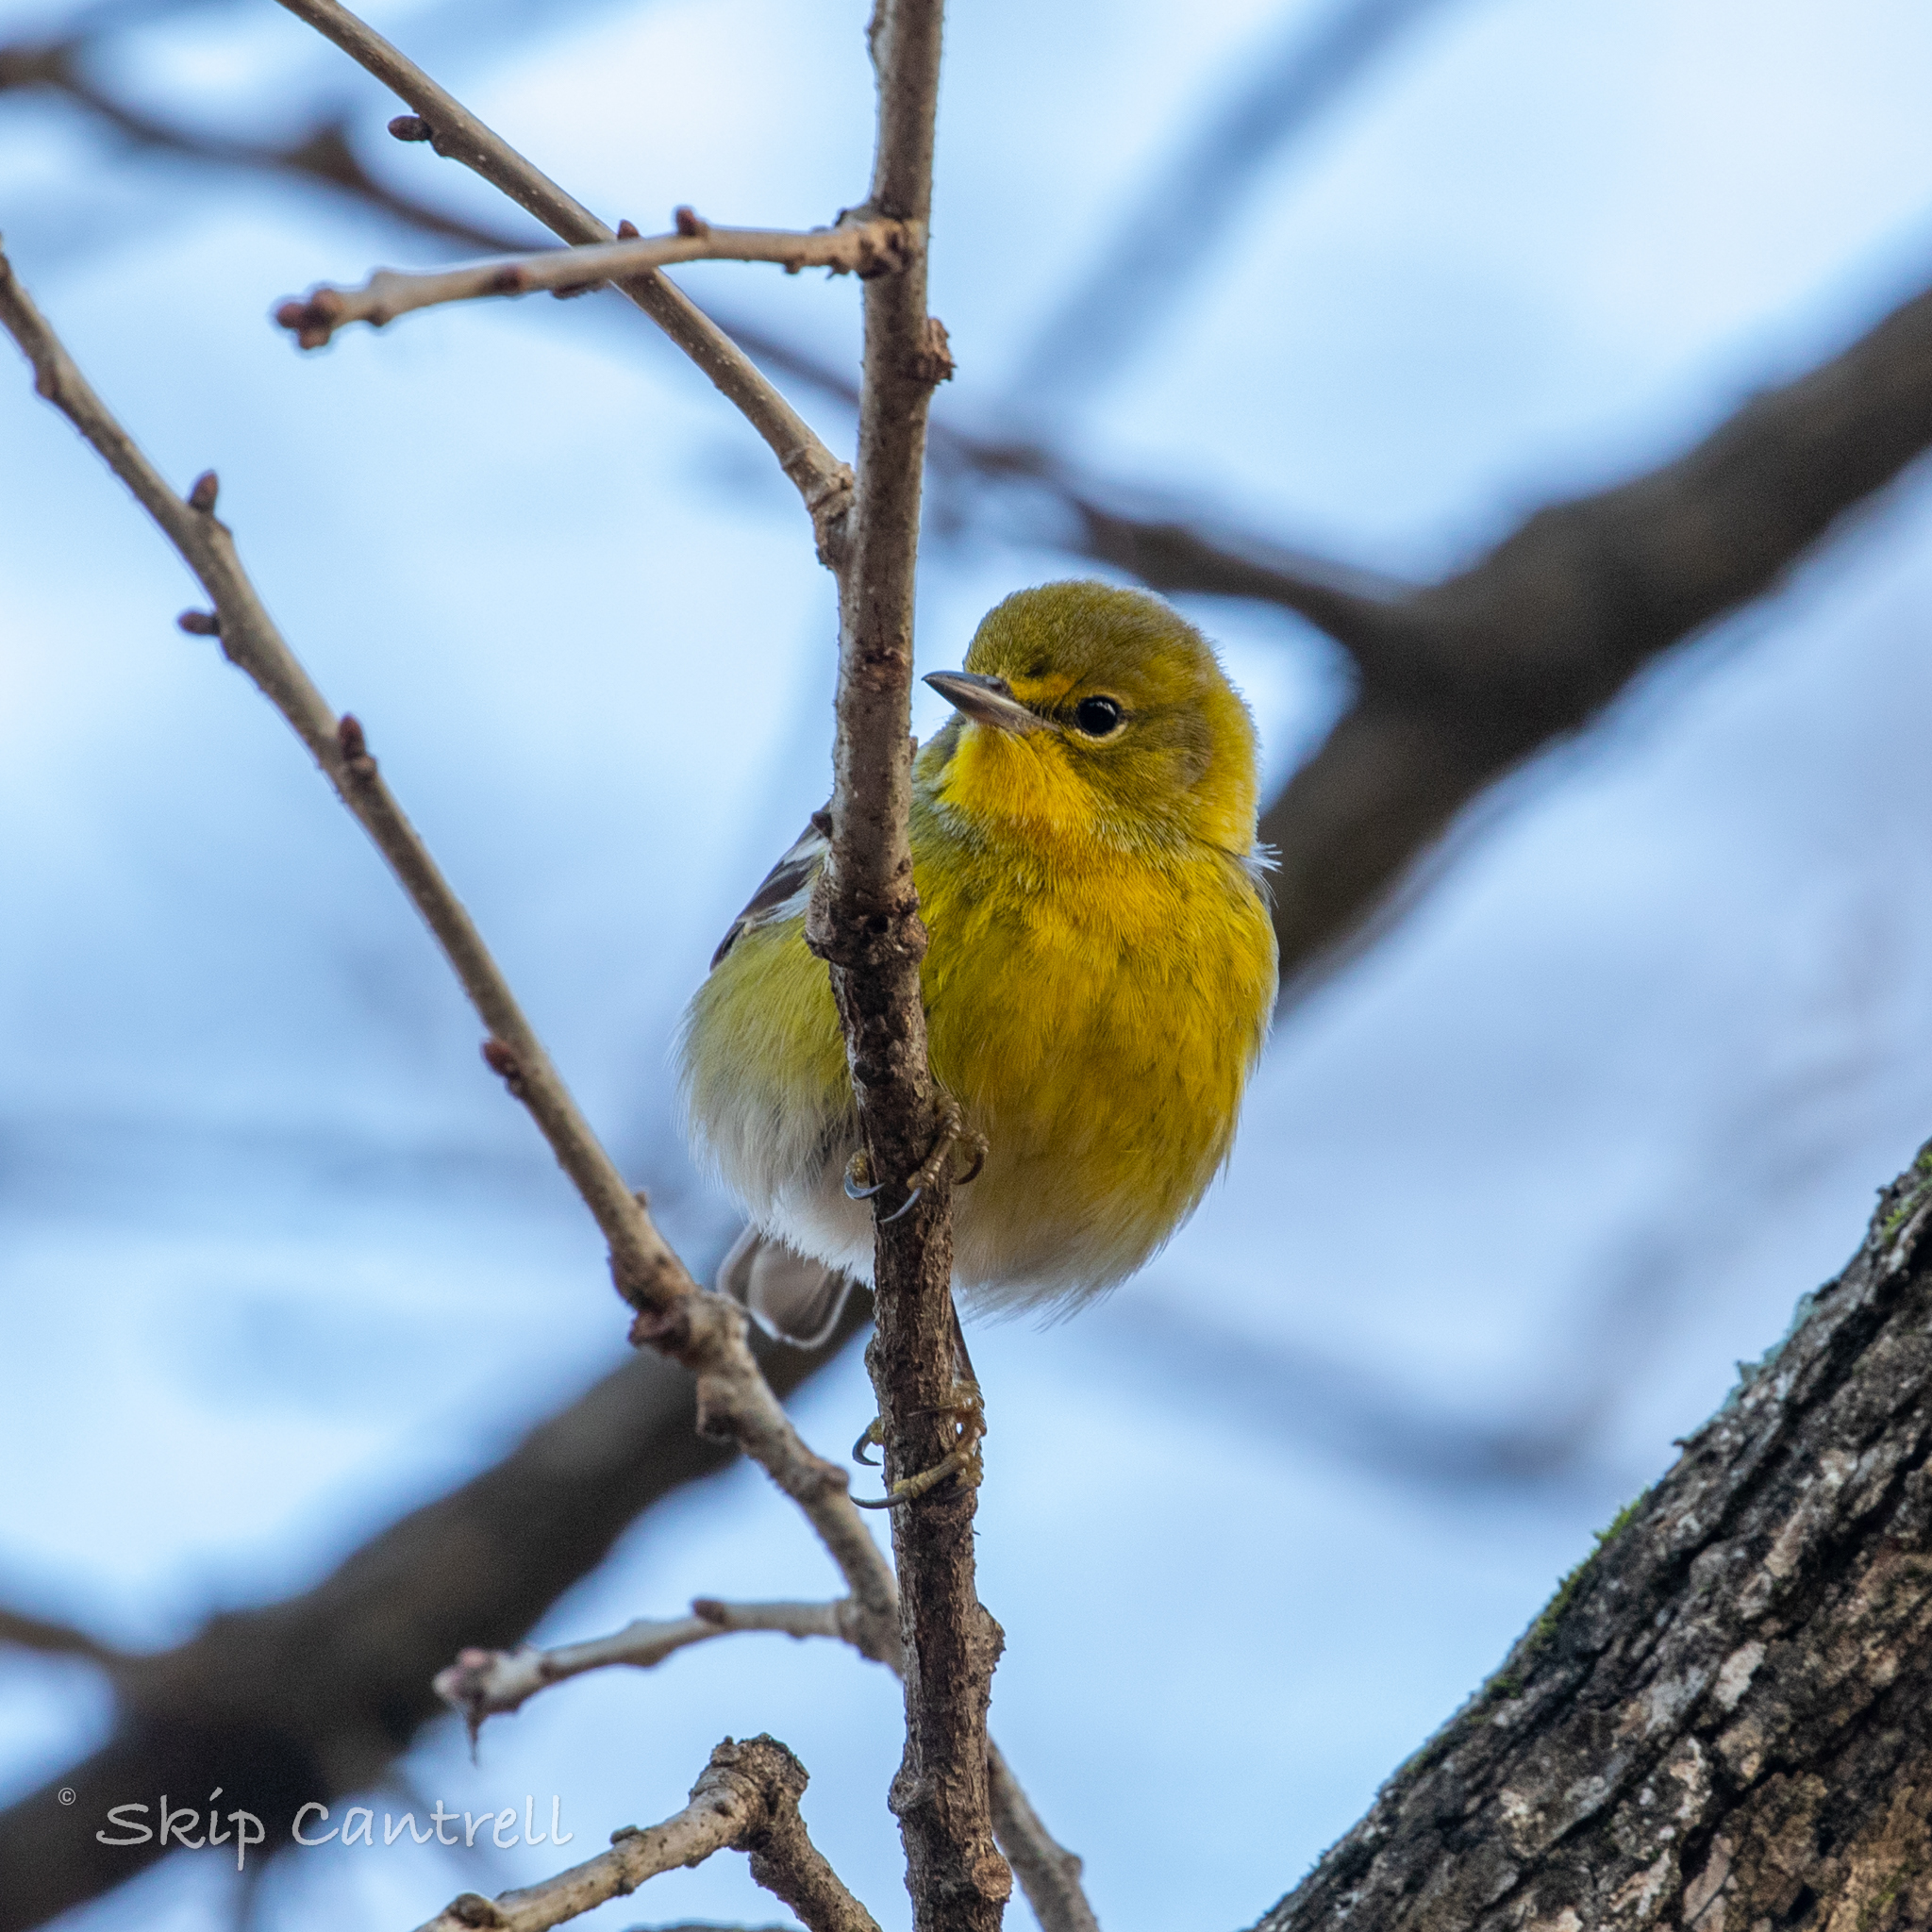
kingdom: Animalia
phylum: Chordata
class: Aves
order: Passeriformes
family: Parulidae
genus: Setophaga
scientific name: Setophaga pinus
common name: Pine warbler
